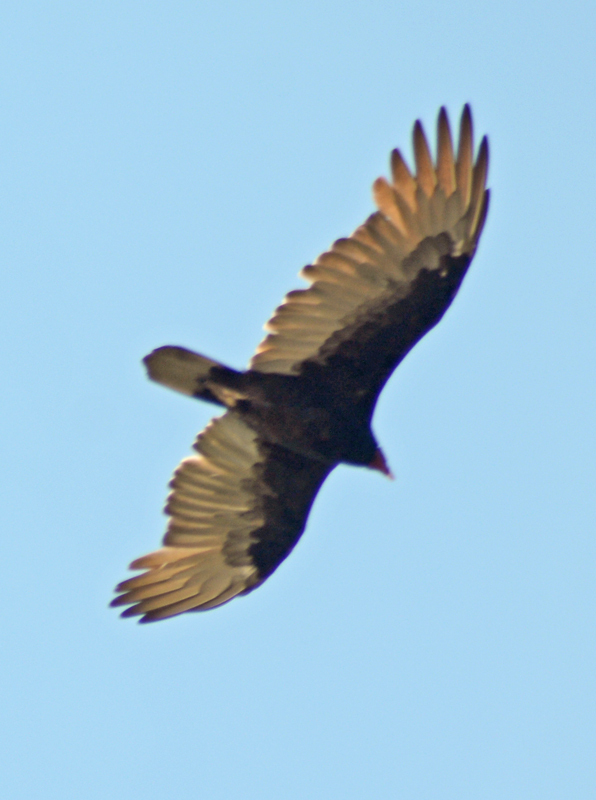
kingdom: Animalia
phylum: Chordata
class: Aves
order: Accipitriformes
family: Cathartidae
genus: Cathartes
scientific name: Cathartes aura
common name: Turkey vulture
